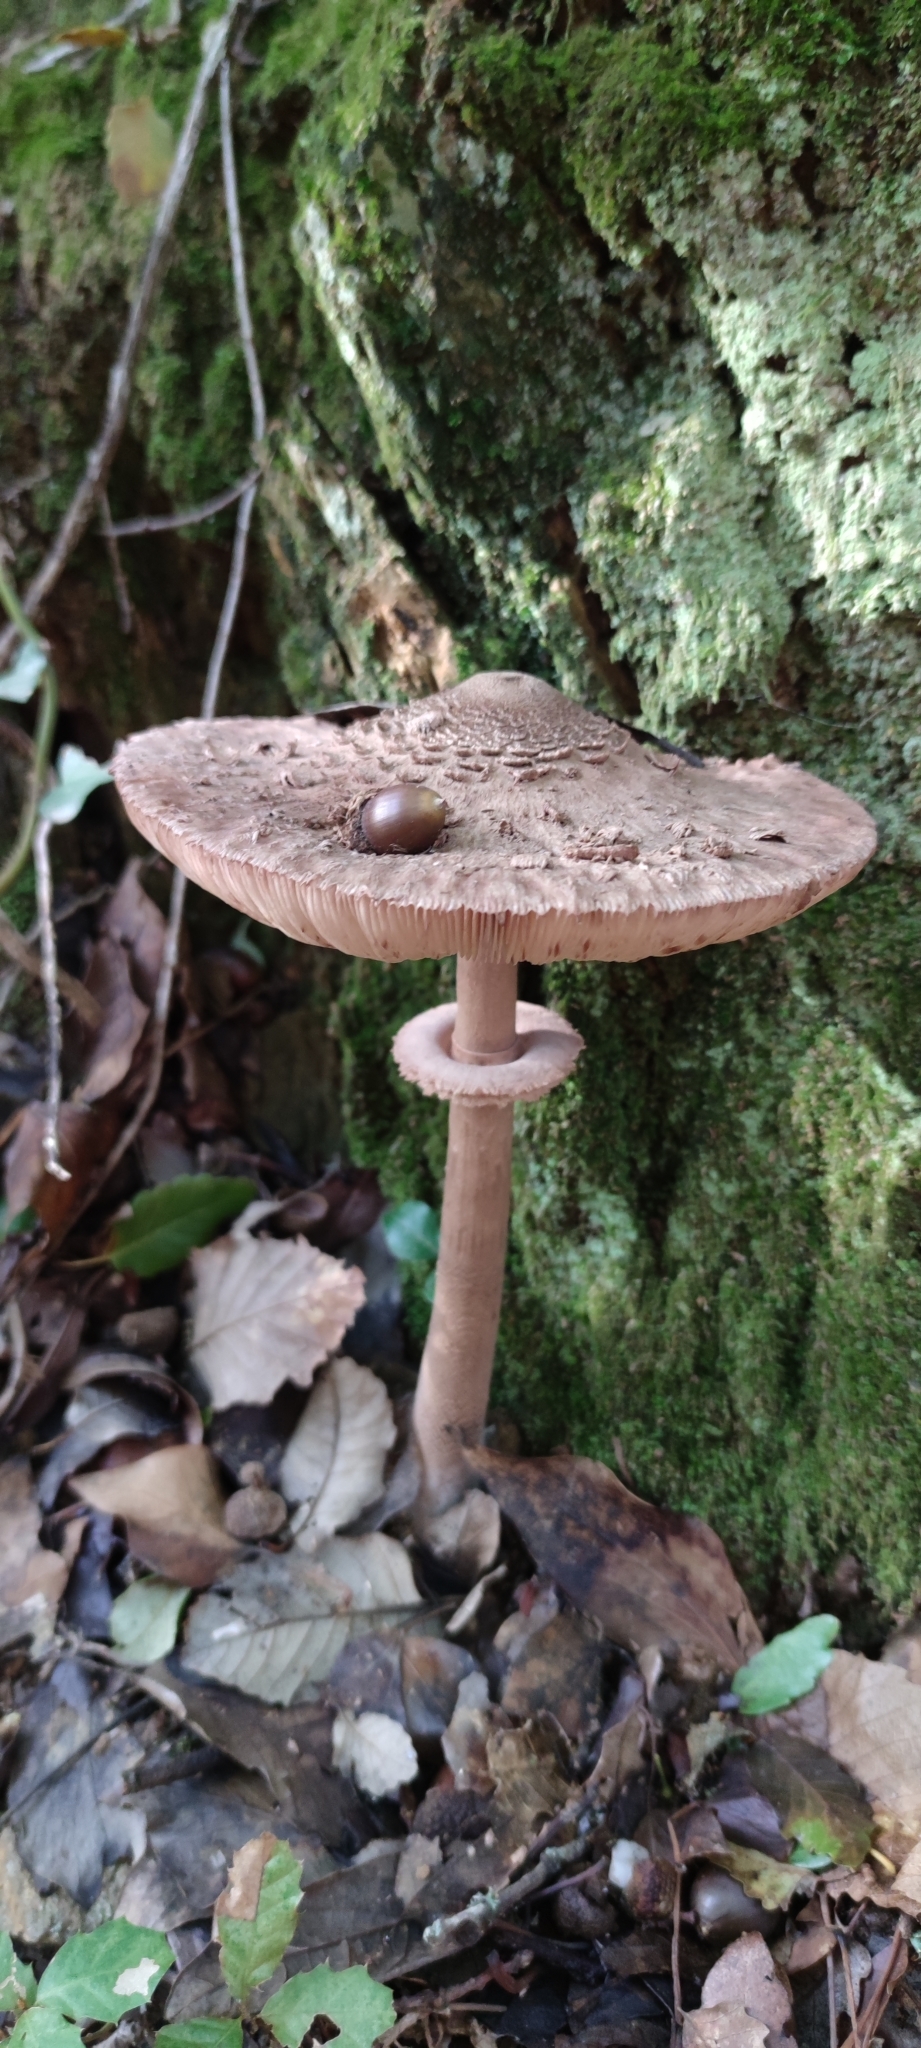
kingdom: Fungi
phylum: Basidiomycota
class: Agaricomycetes
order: Agaricales
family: Agaricaceae
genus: Macrolepiota
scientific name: Macrolepiota procera
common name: Parasol
